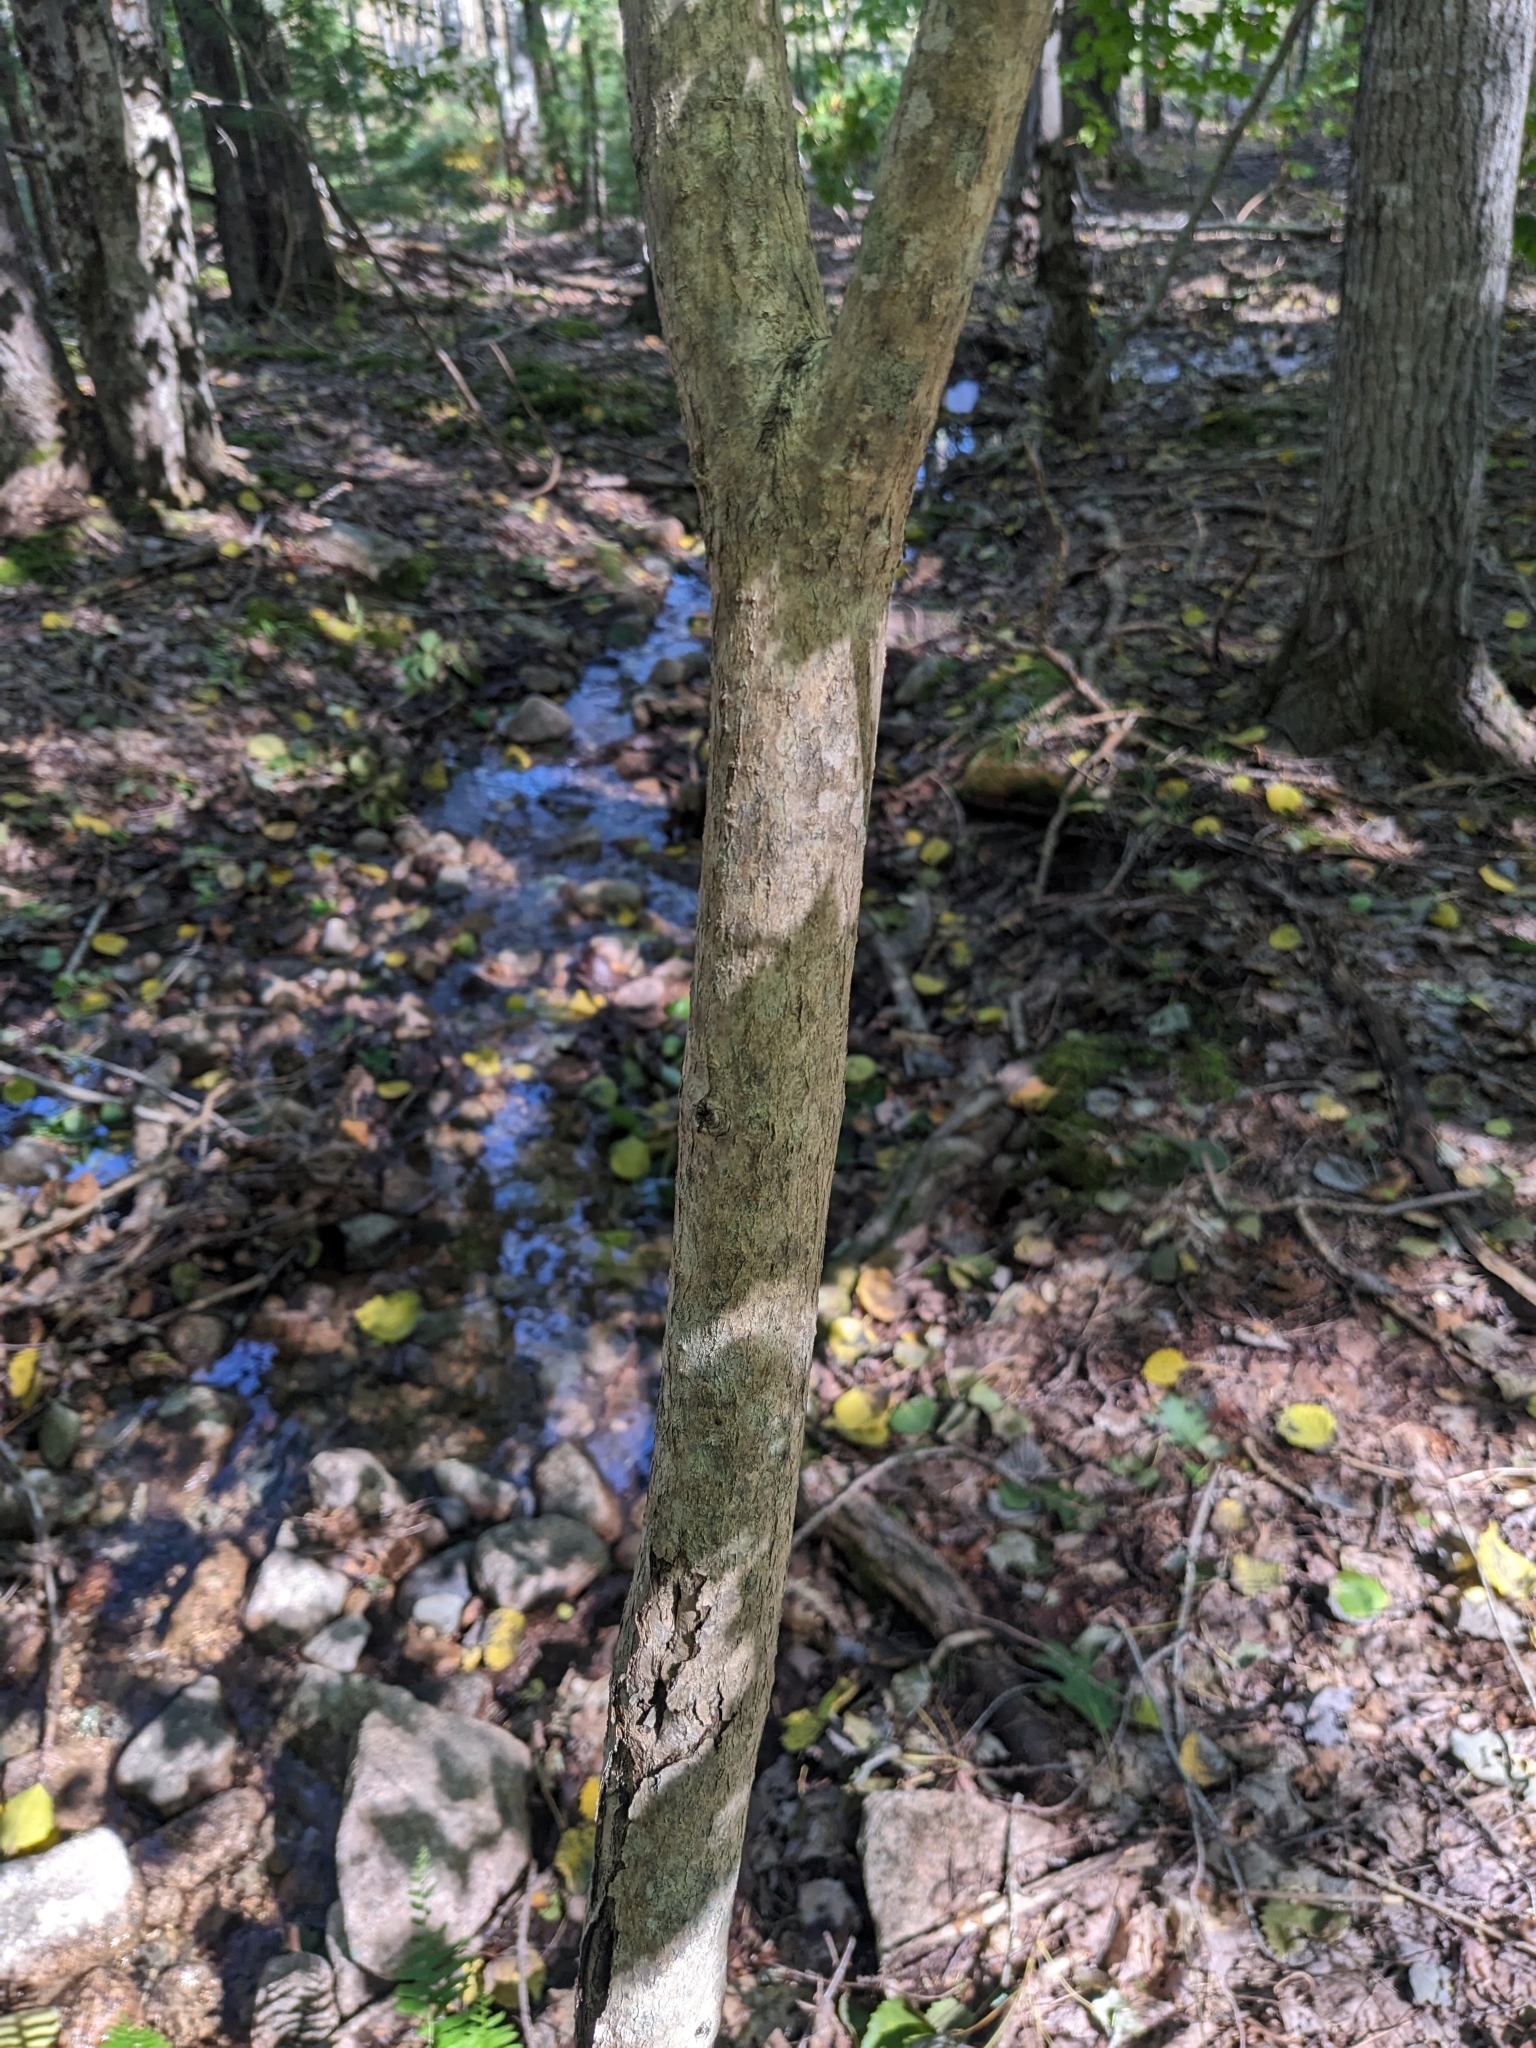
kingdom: Plantae
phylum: Tracheophyta
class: Magnoliopsida
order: Sapindales
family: Sapindaceae
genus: Acer
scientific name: Acer spicatum
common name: Mountain maple
